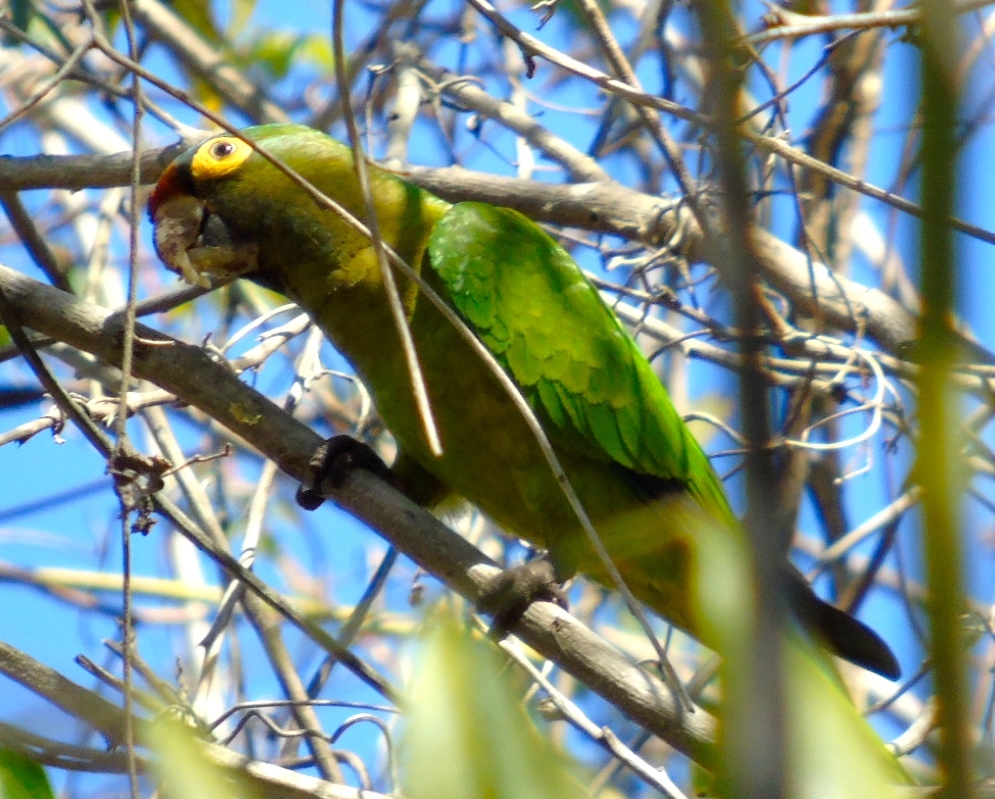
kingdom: Animalia
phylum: Chordata
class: Aves
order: Psittaciformes
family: Psittacidae
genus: Aratinga
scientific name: Aratinga canicularis
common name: Orange-fronted parakeet
